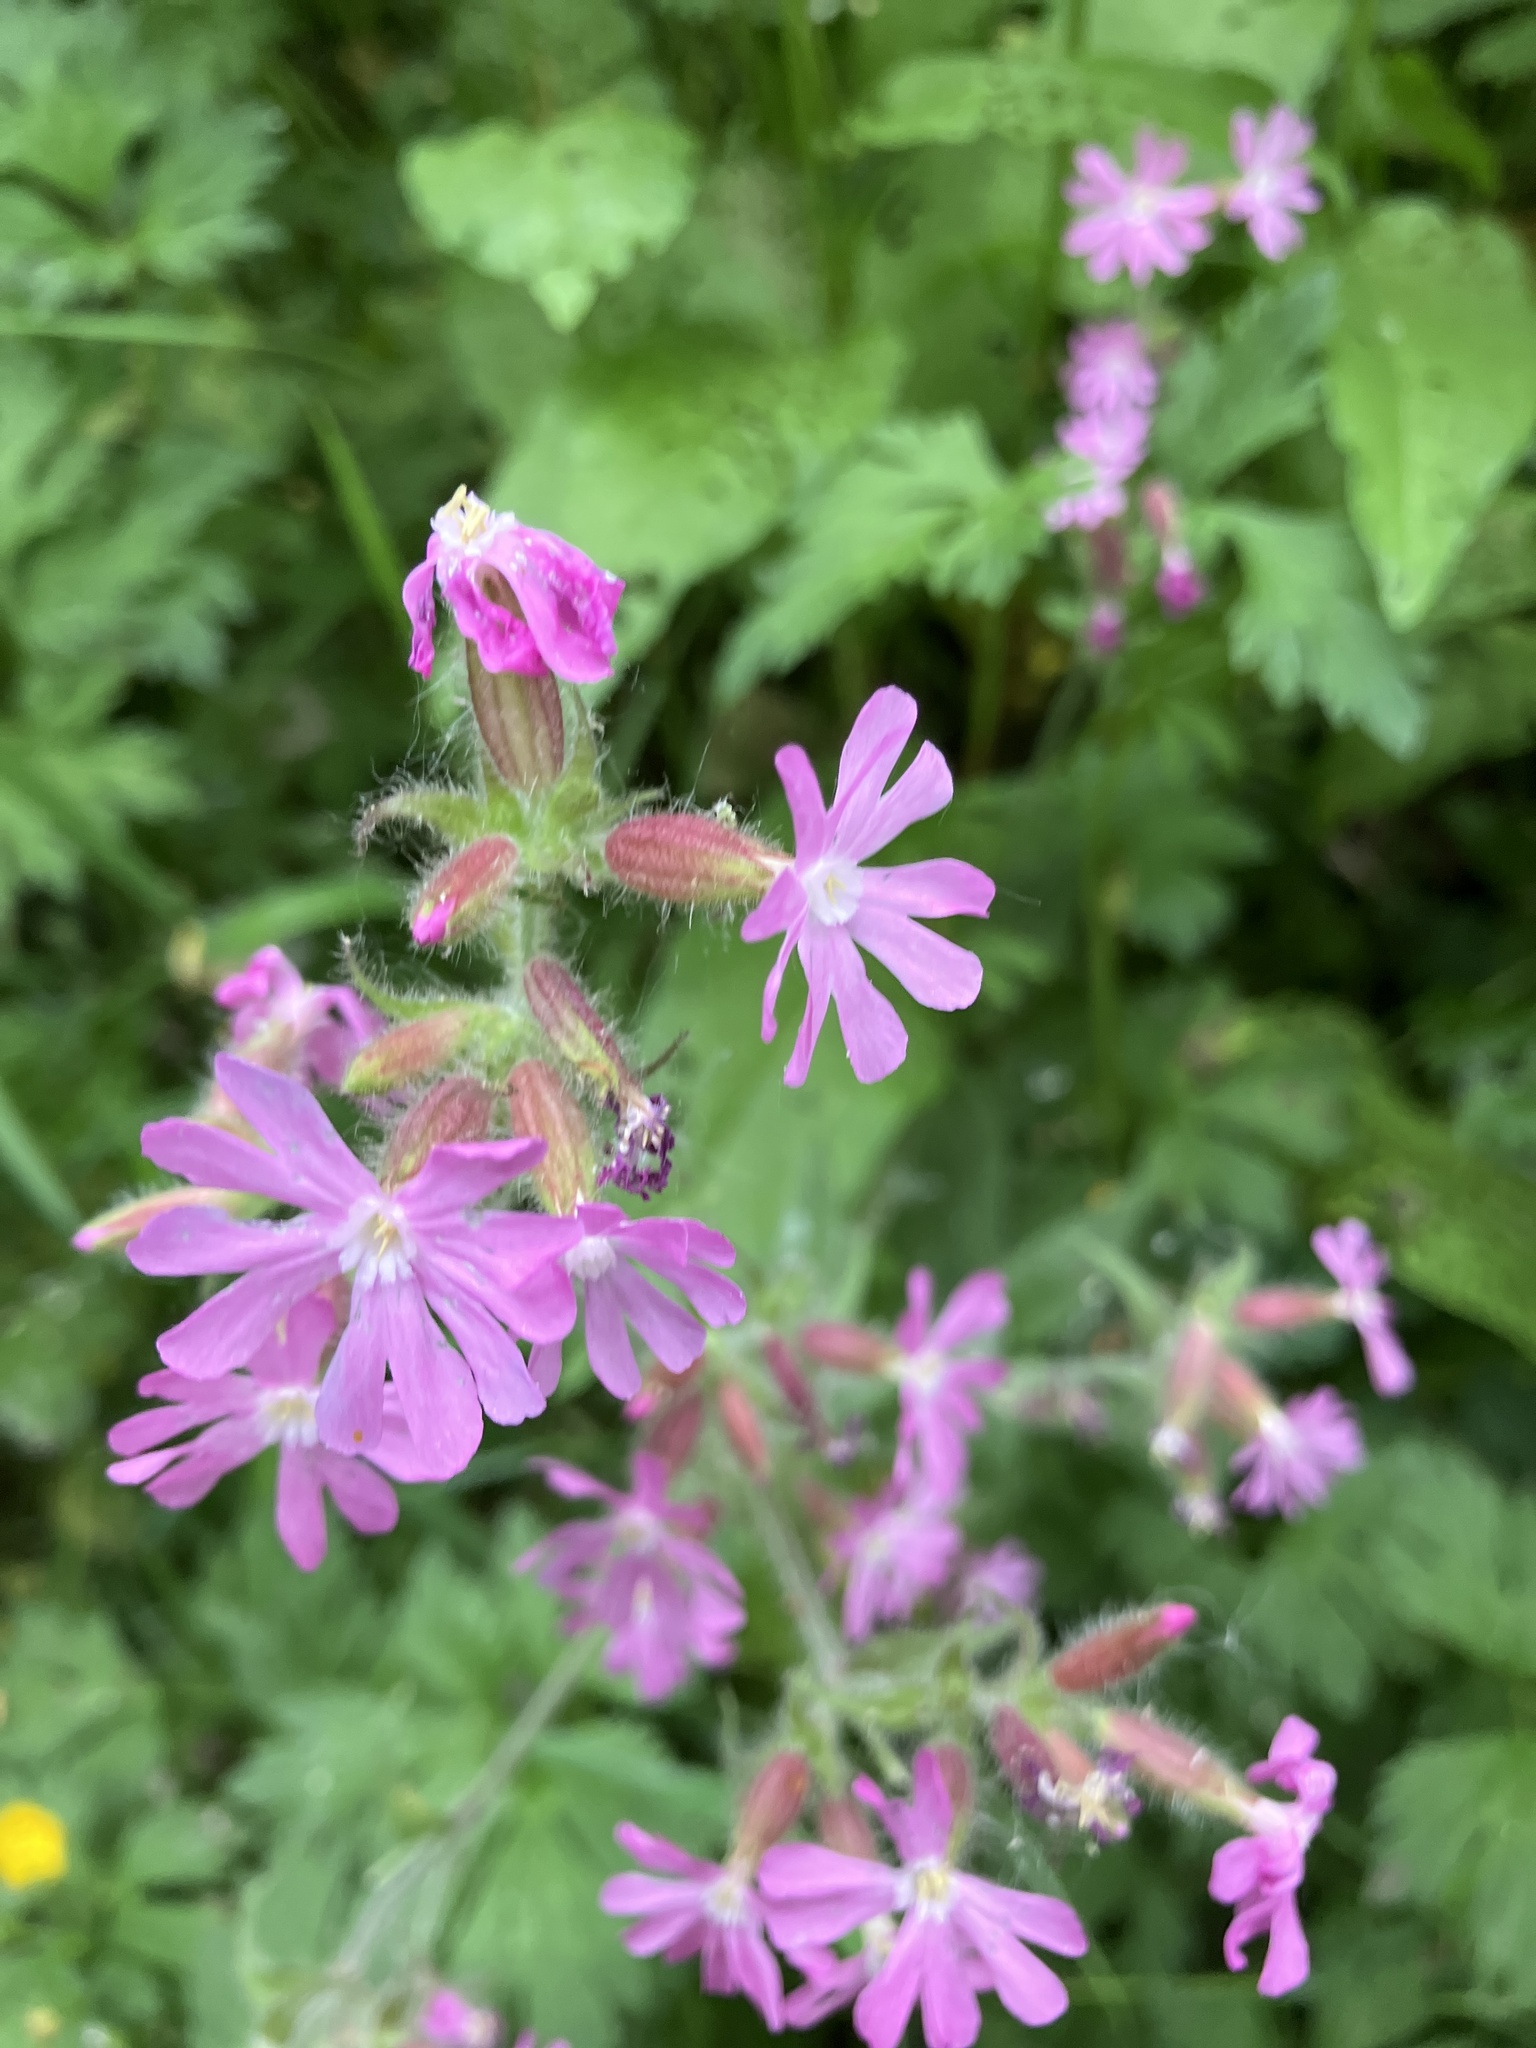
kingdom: Plantae
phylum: Tracheophyta
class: Magnoliopsida
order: Caryophyllales
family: Caryophyllaceae
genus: Silene
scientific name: Silene dioica
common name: Red campion
